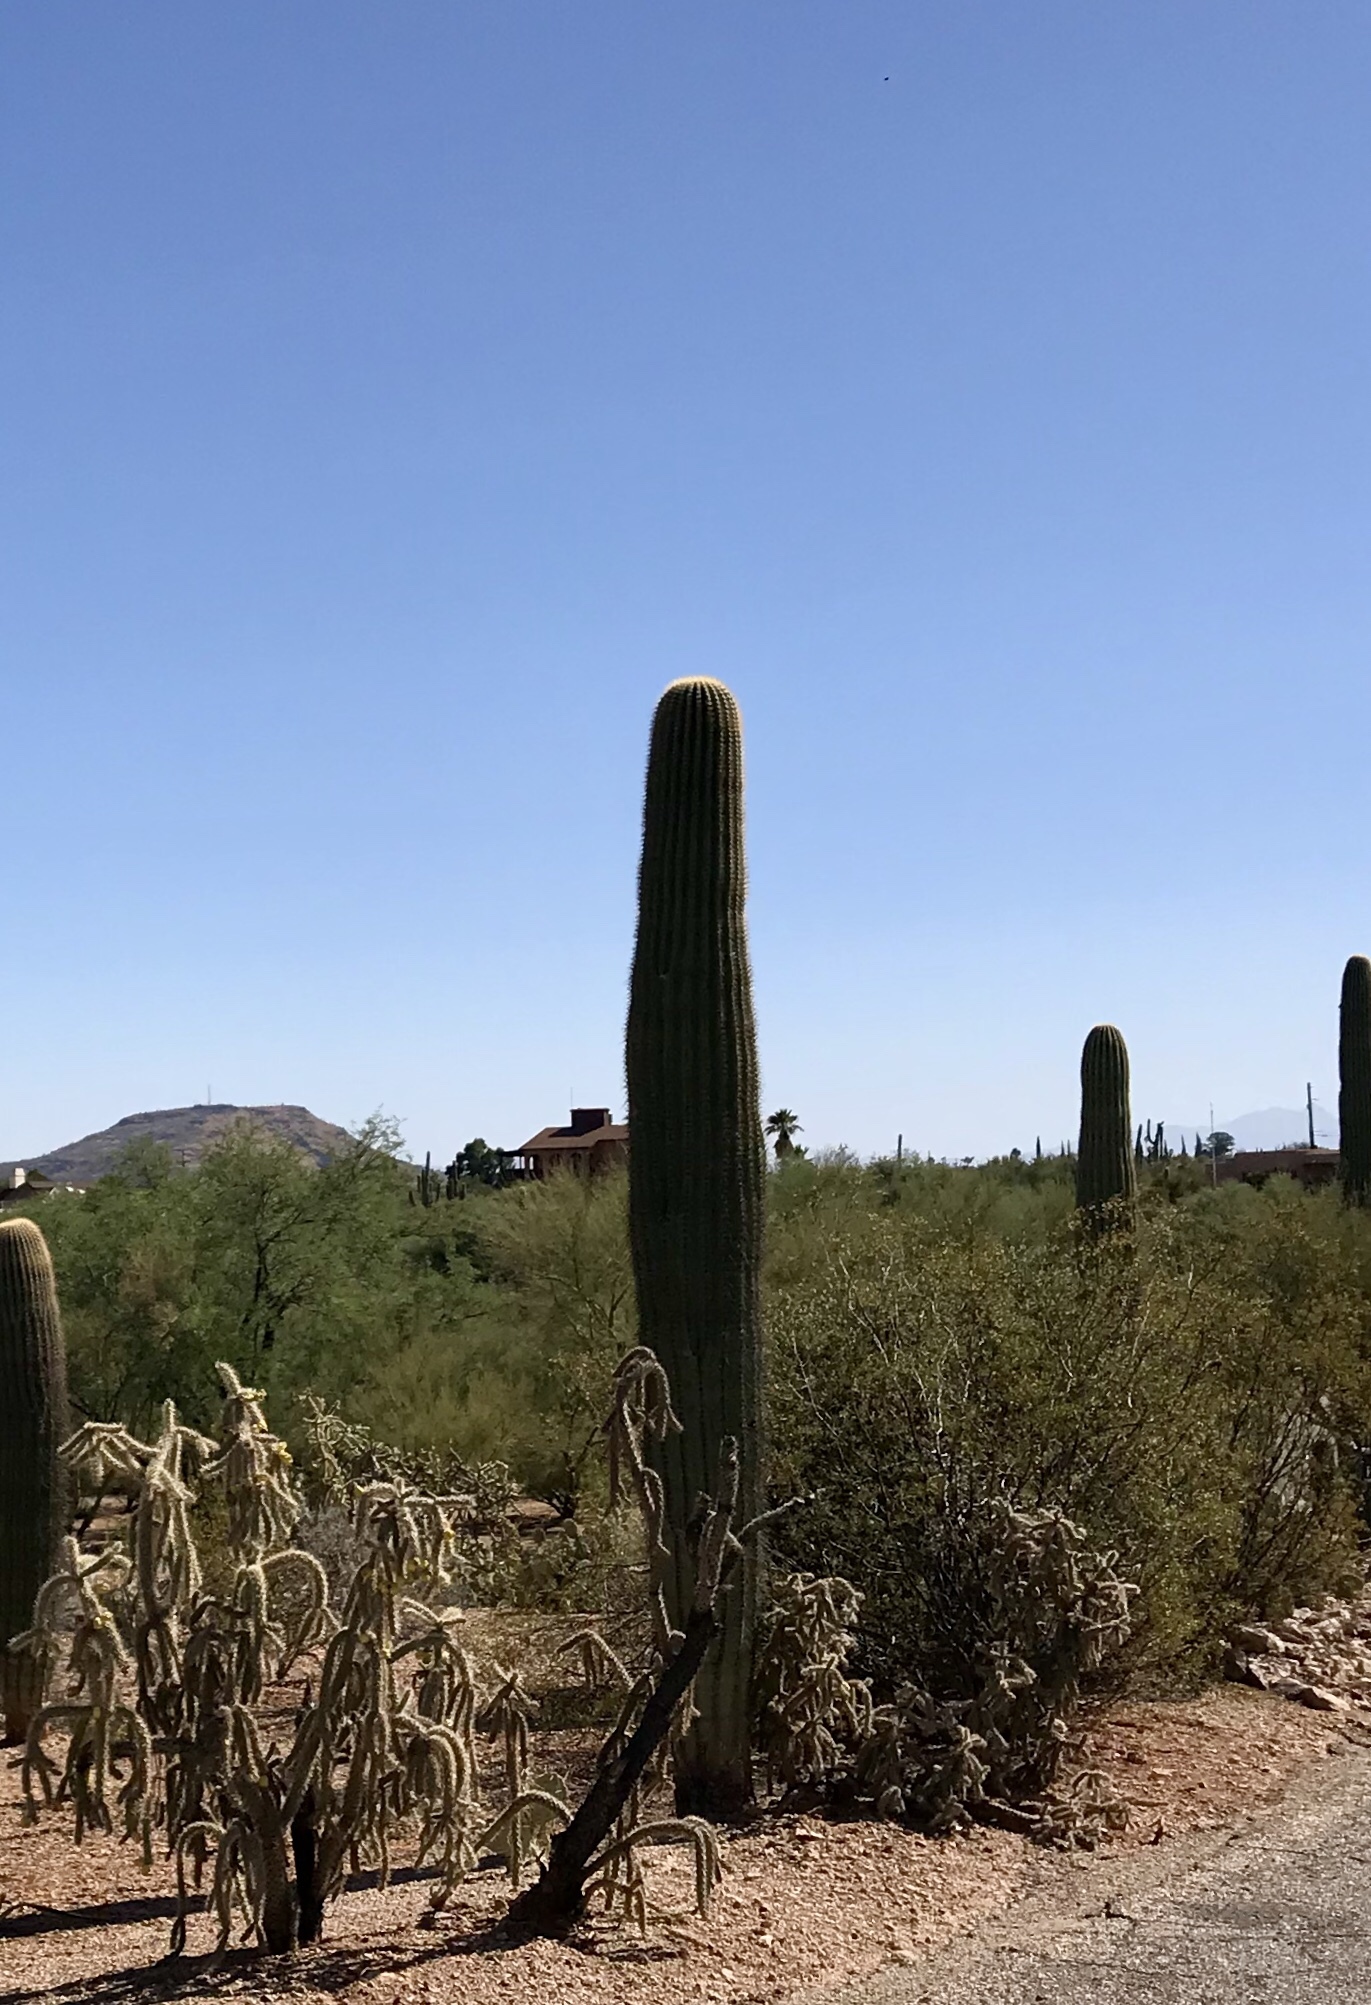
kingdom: Plantae
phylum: Tracheophyta
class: Magnoliopsida
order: Caryophyllales
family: Cactaceae
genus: Carnegiea
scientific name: Carnegiea gigantea
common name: Saguaro
